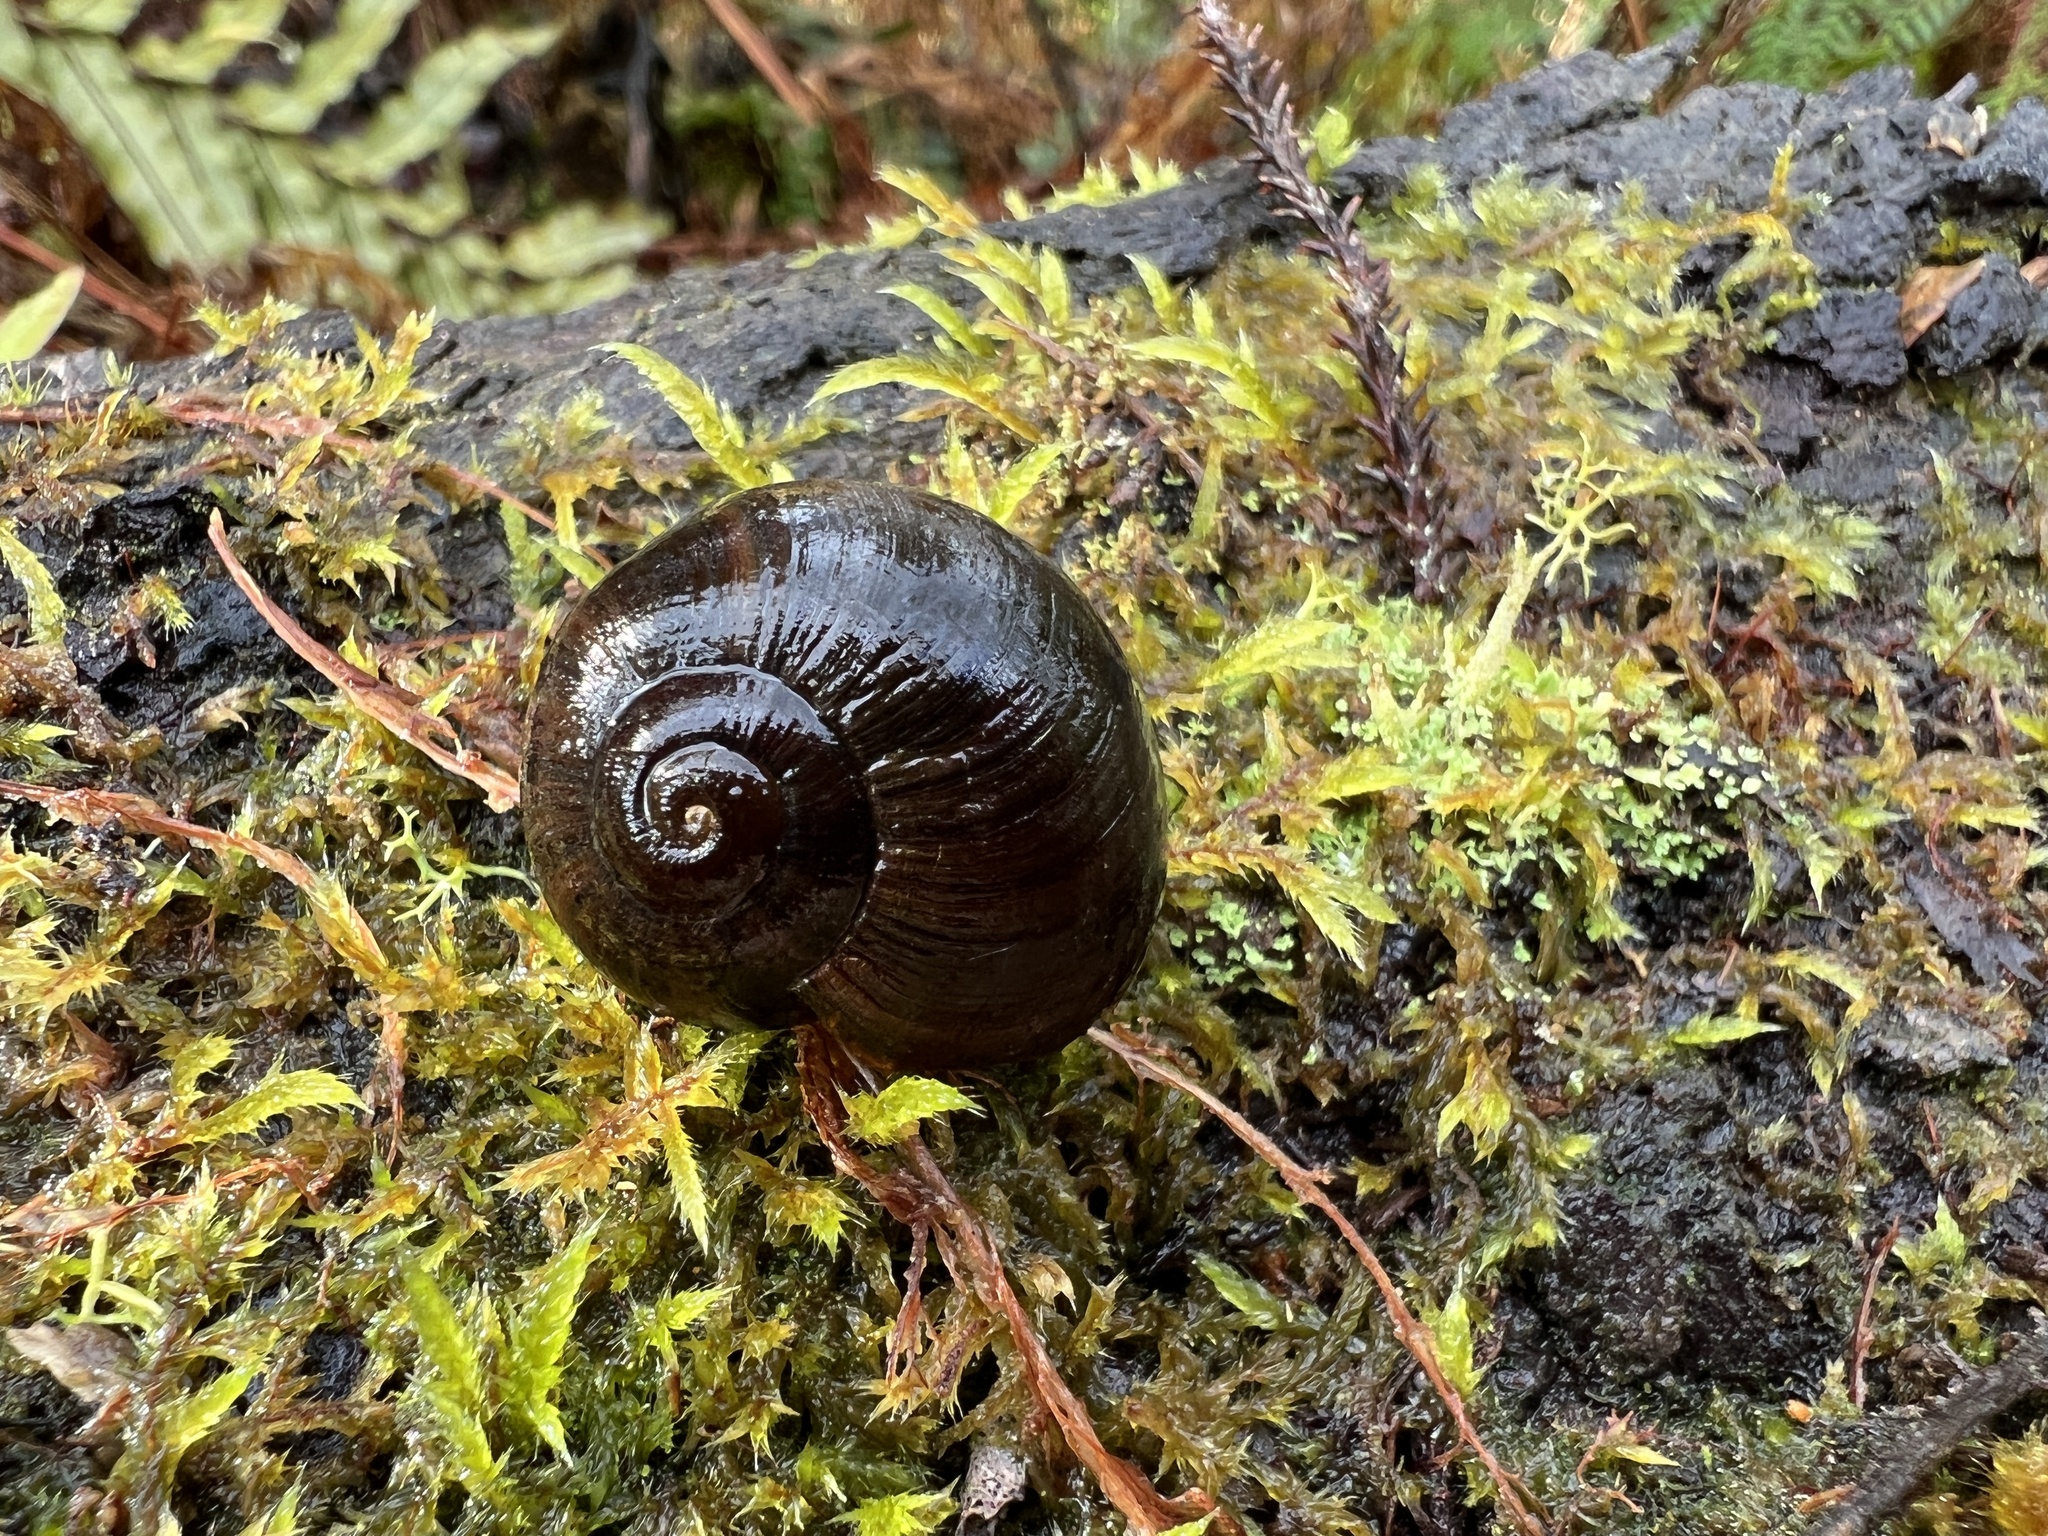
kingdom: Animalia
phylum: Mollusca
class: Gastropoda
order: Stylommatophora
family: Rhytididae
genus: Powelliphanta
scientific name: Powelliphanta annectens
